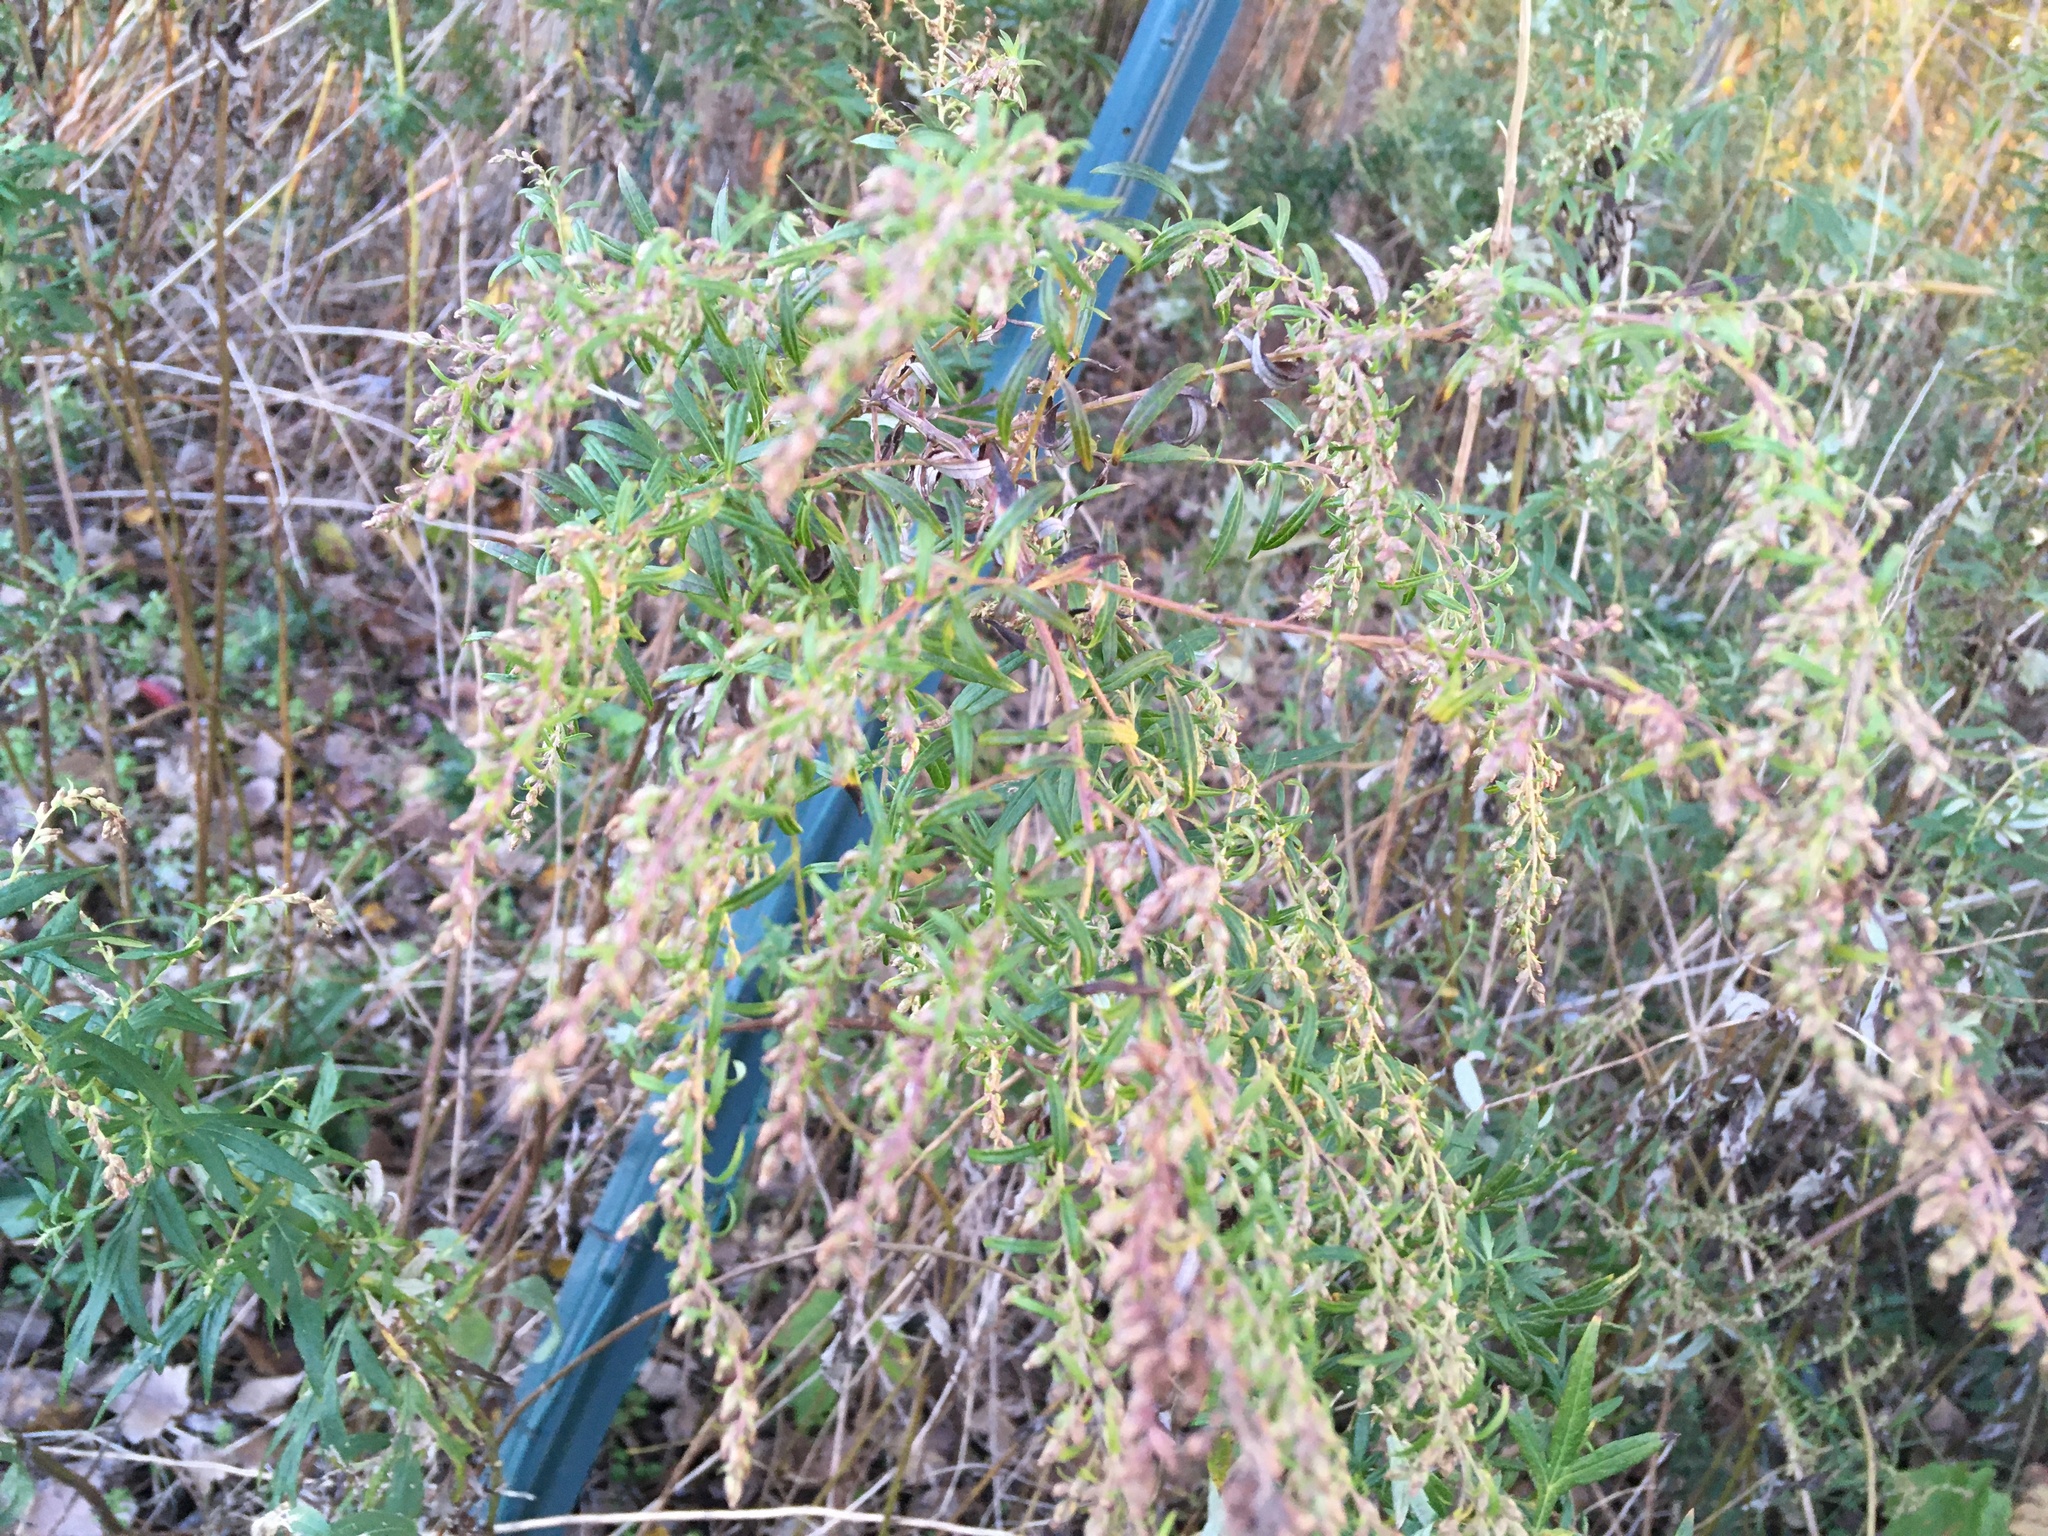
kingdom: Plantae
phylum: Tracheophyta
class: Magnoliopsida
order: Asterales
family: Asteraceae
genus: Artemisia
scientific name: Artemisia vulgaris
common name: Mugwort
